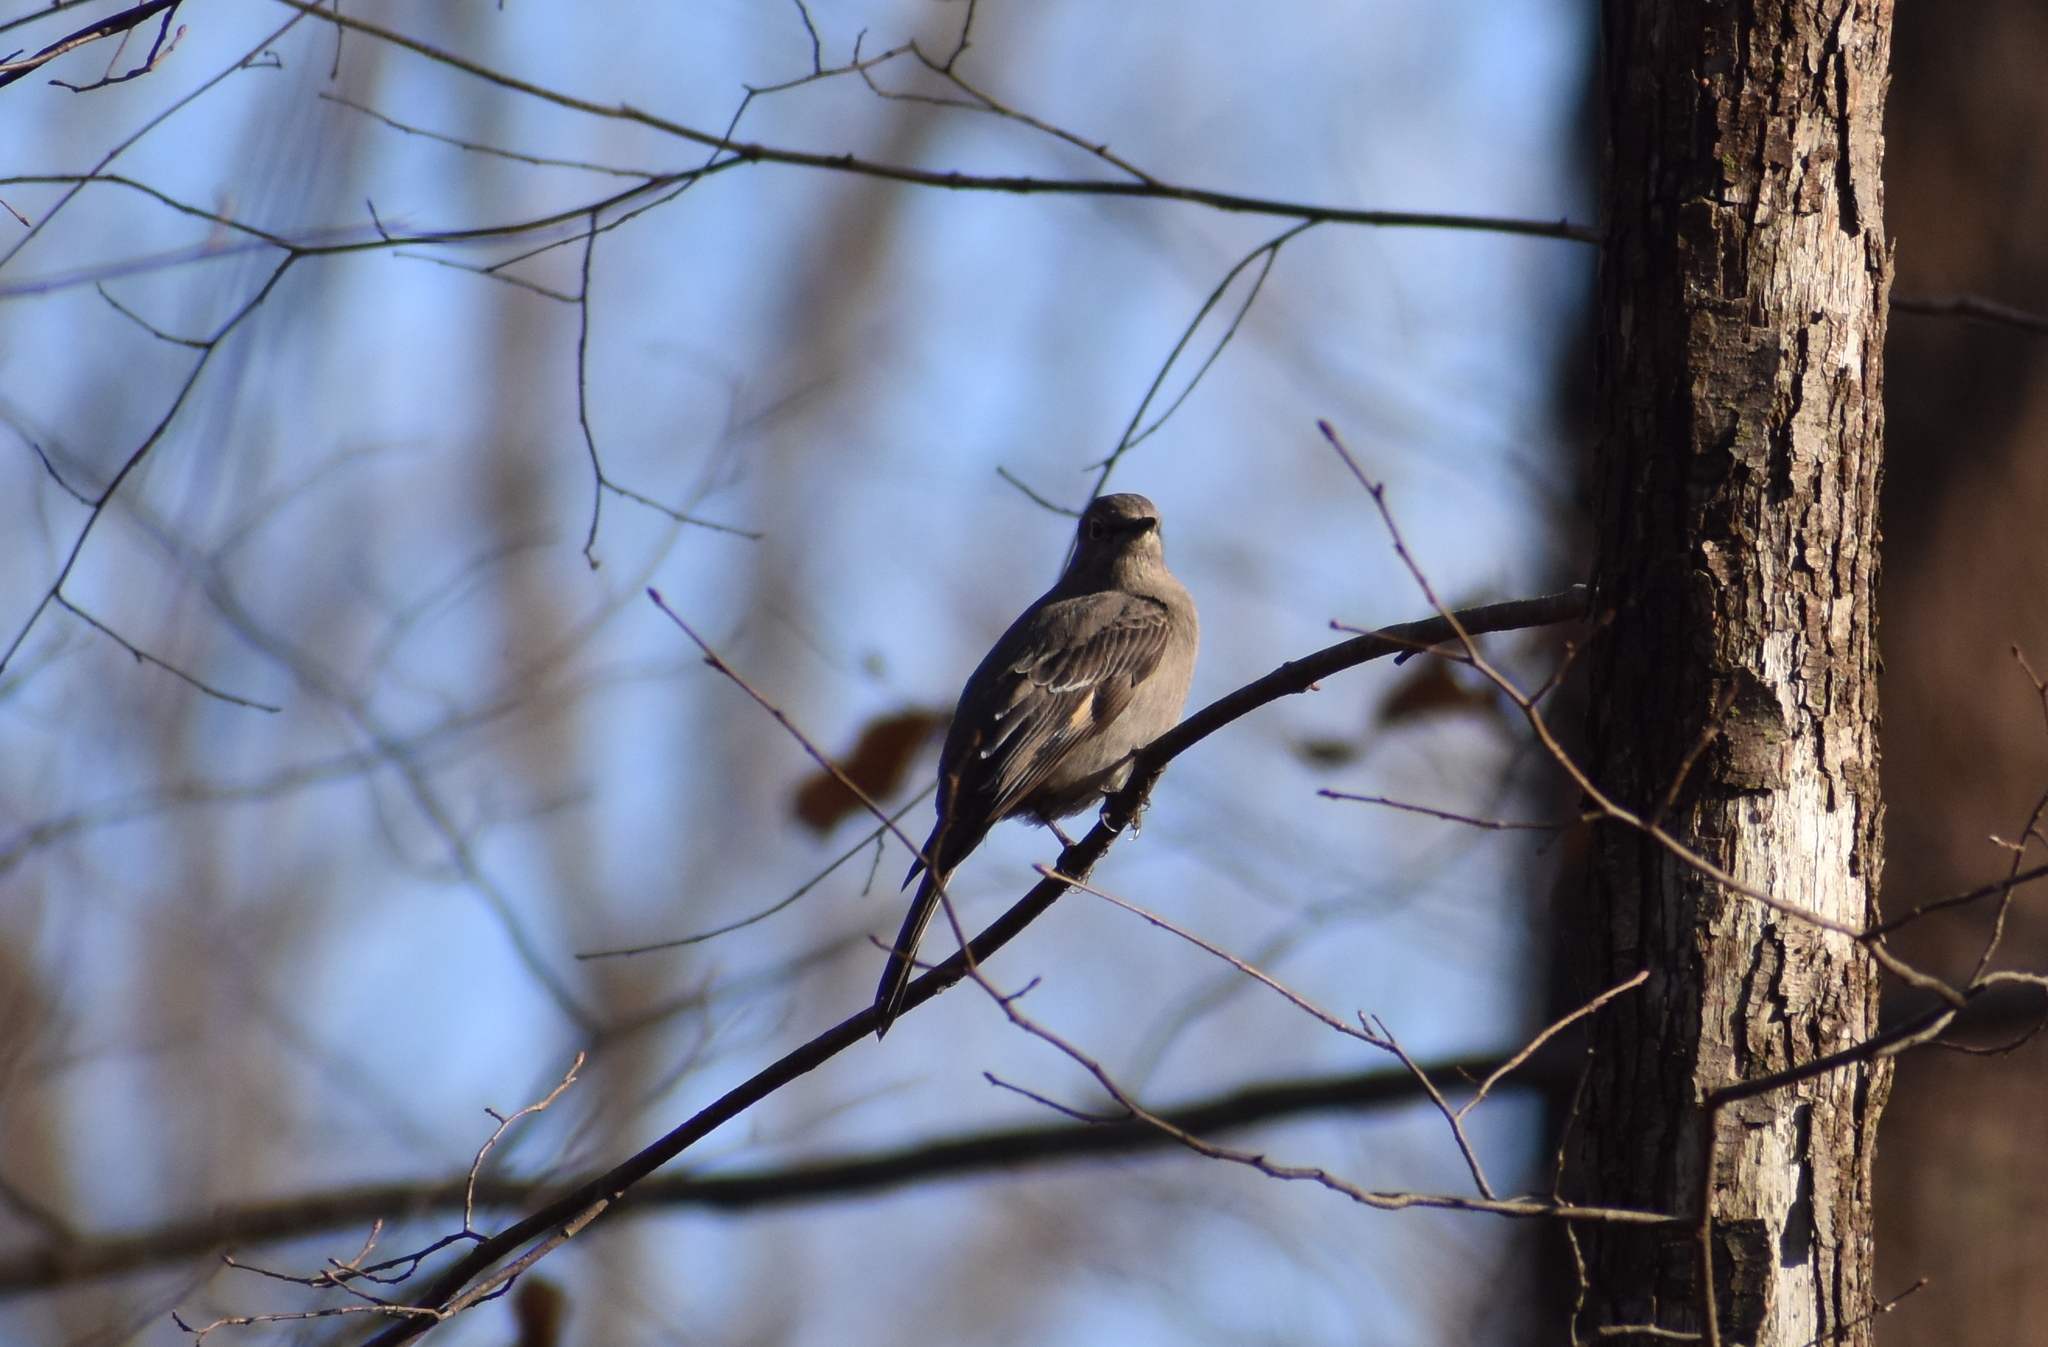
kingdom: Animalia
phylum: Chordata
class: Aves
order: Passeriformes
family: Turdidae
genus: Myadestes
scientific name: Myadestes townsendi
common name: Townsend's solitaire
